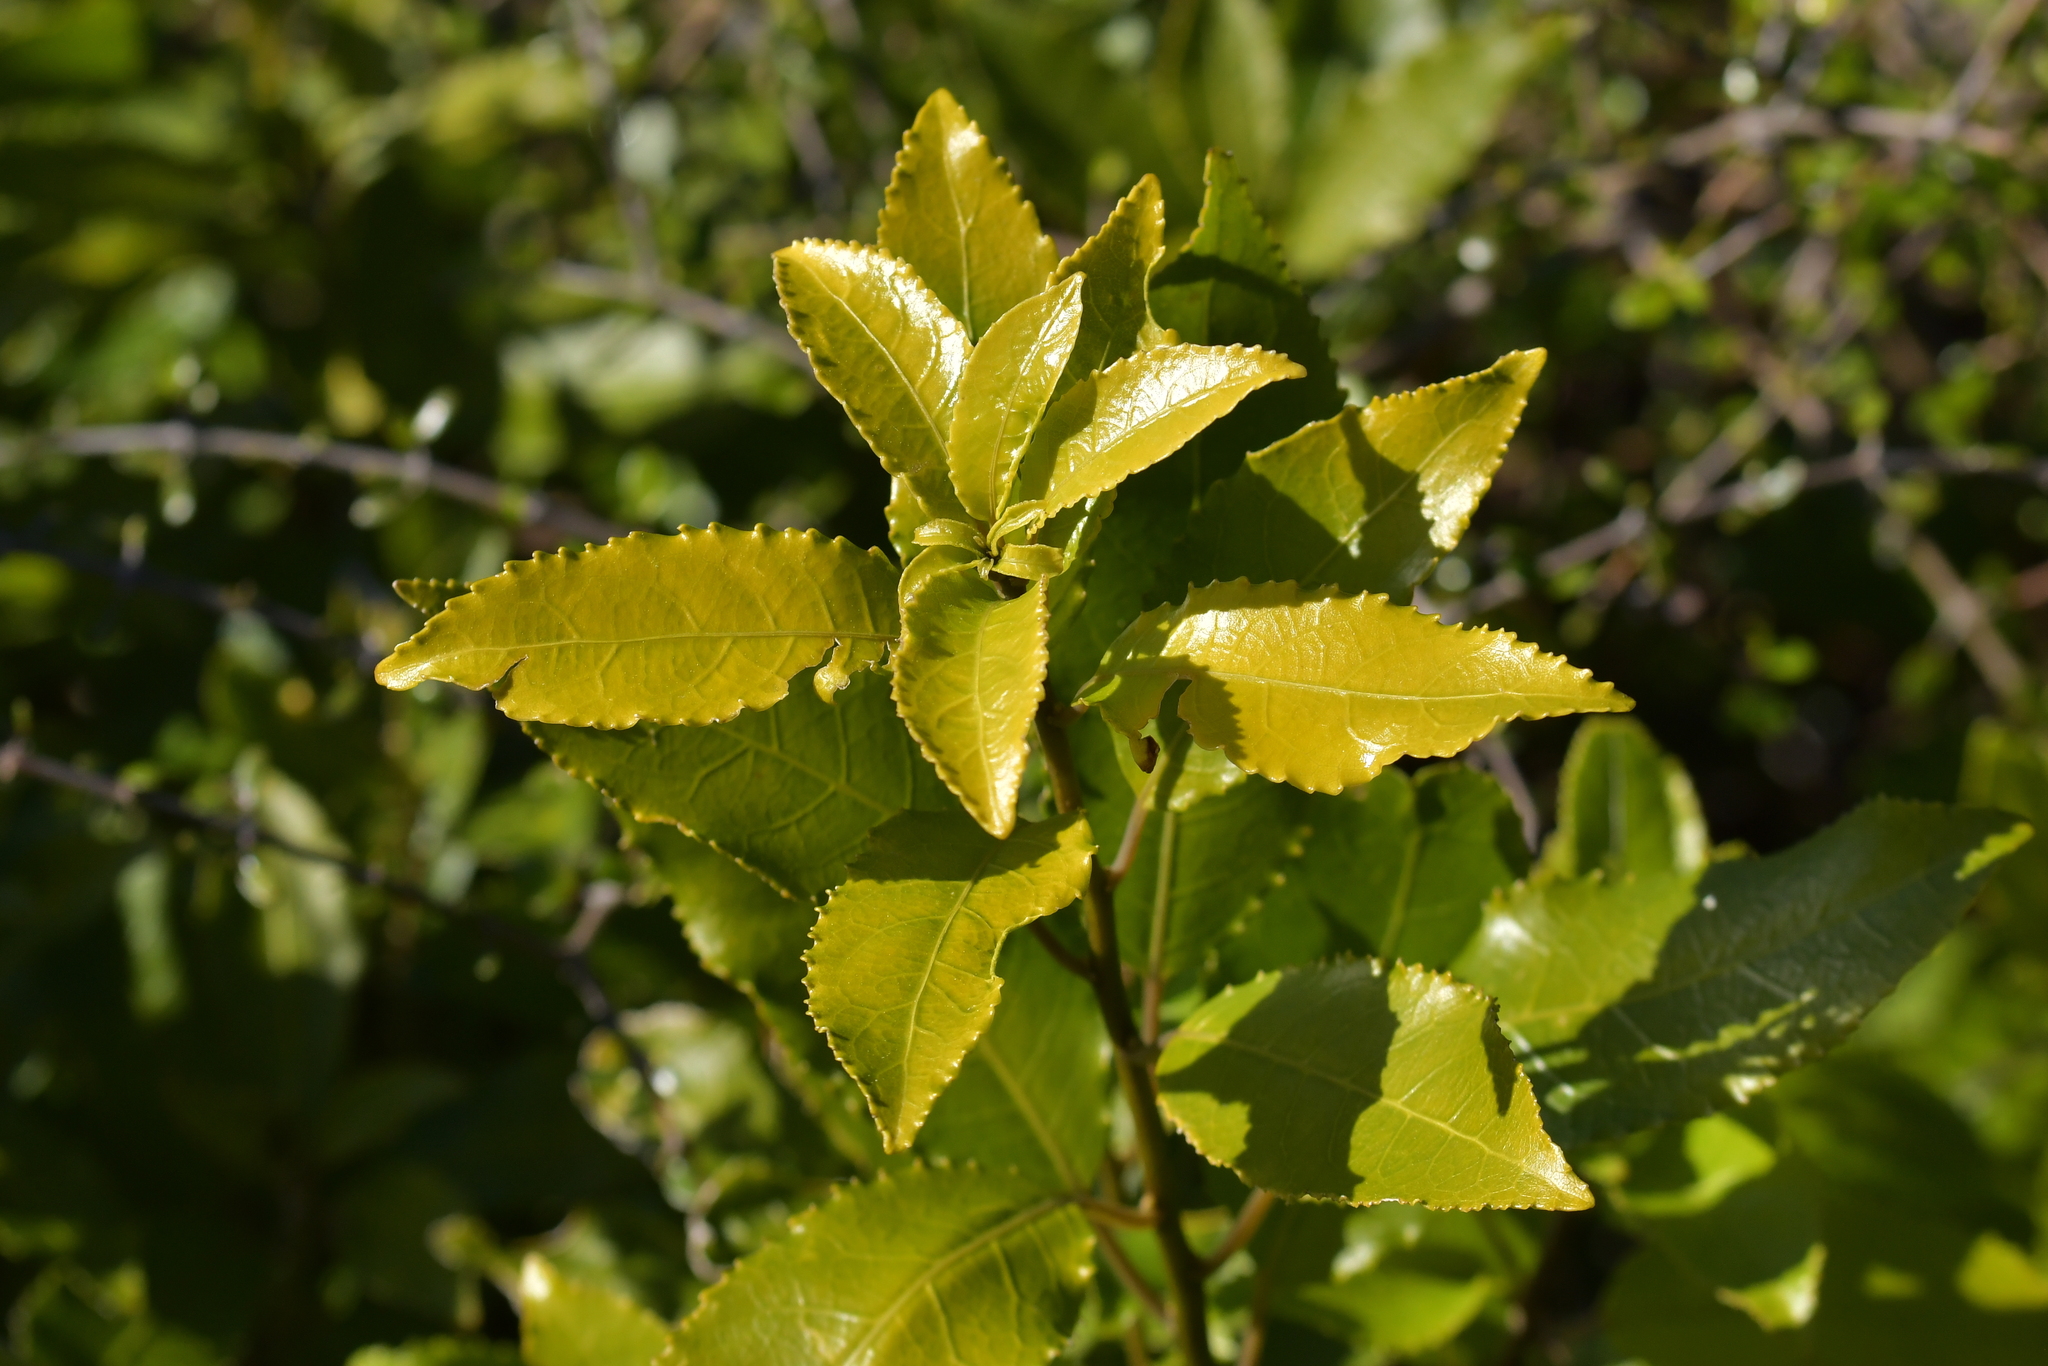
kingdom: Plantae
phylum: Tracheophyta
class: Magnoliopsida
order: Malpighiales
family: Violaceae
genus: Melicytus
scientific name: Melicytus ramiflorus
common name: Mahoe
